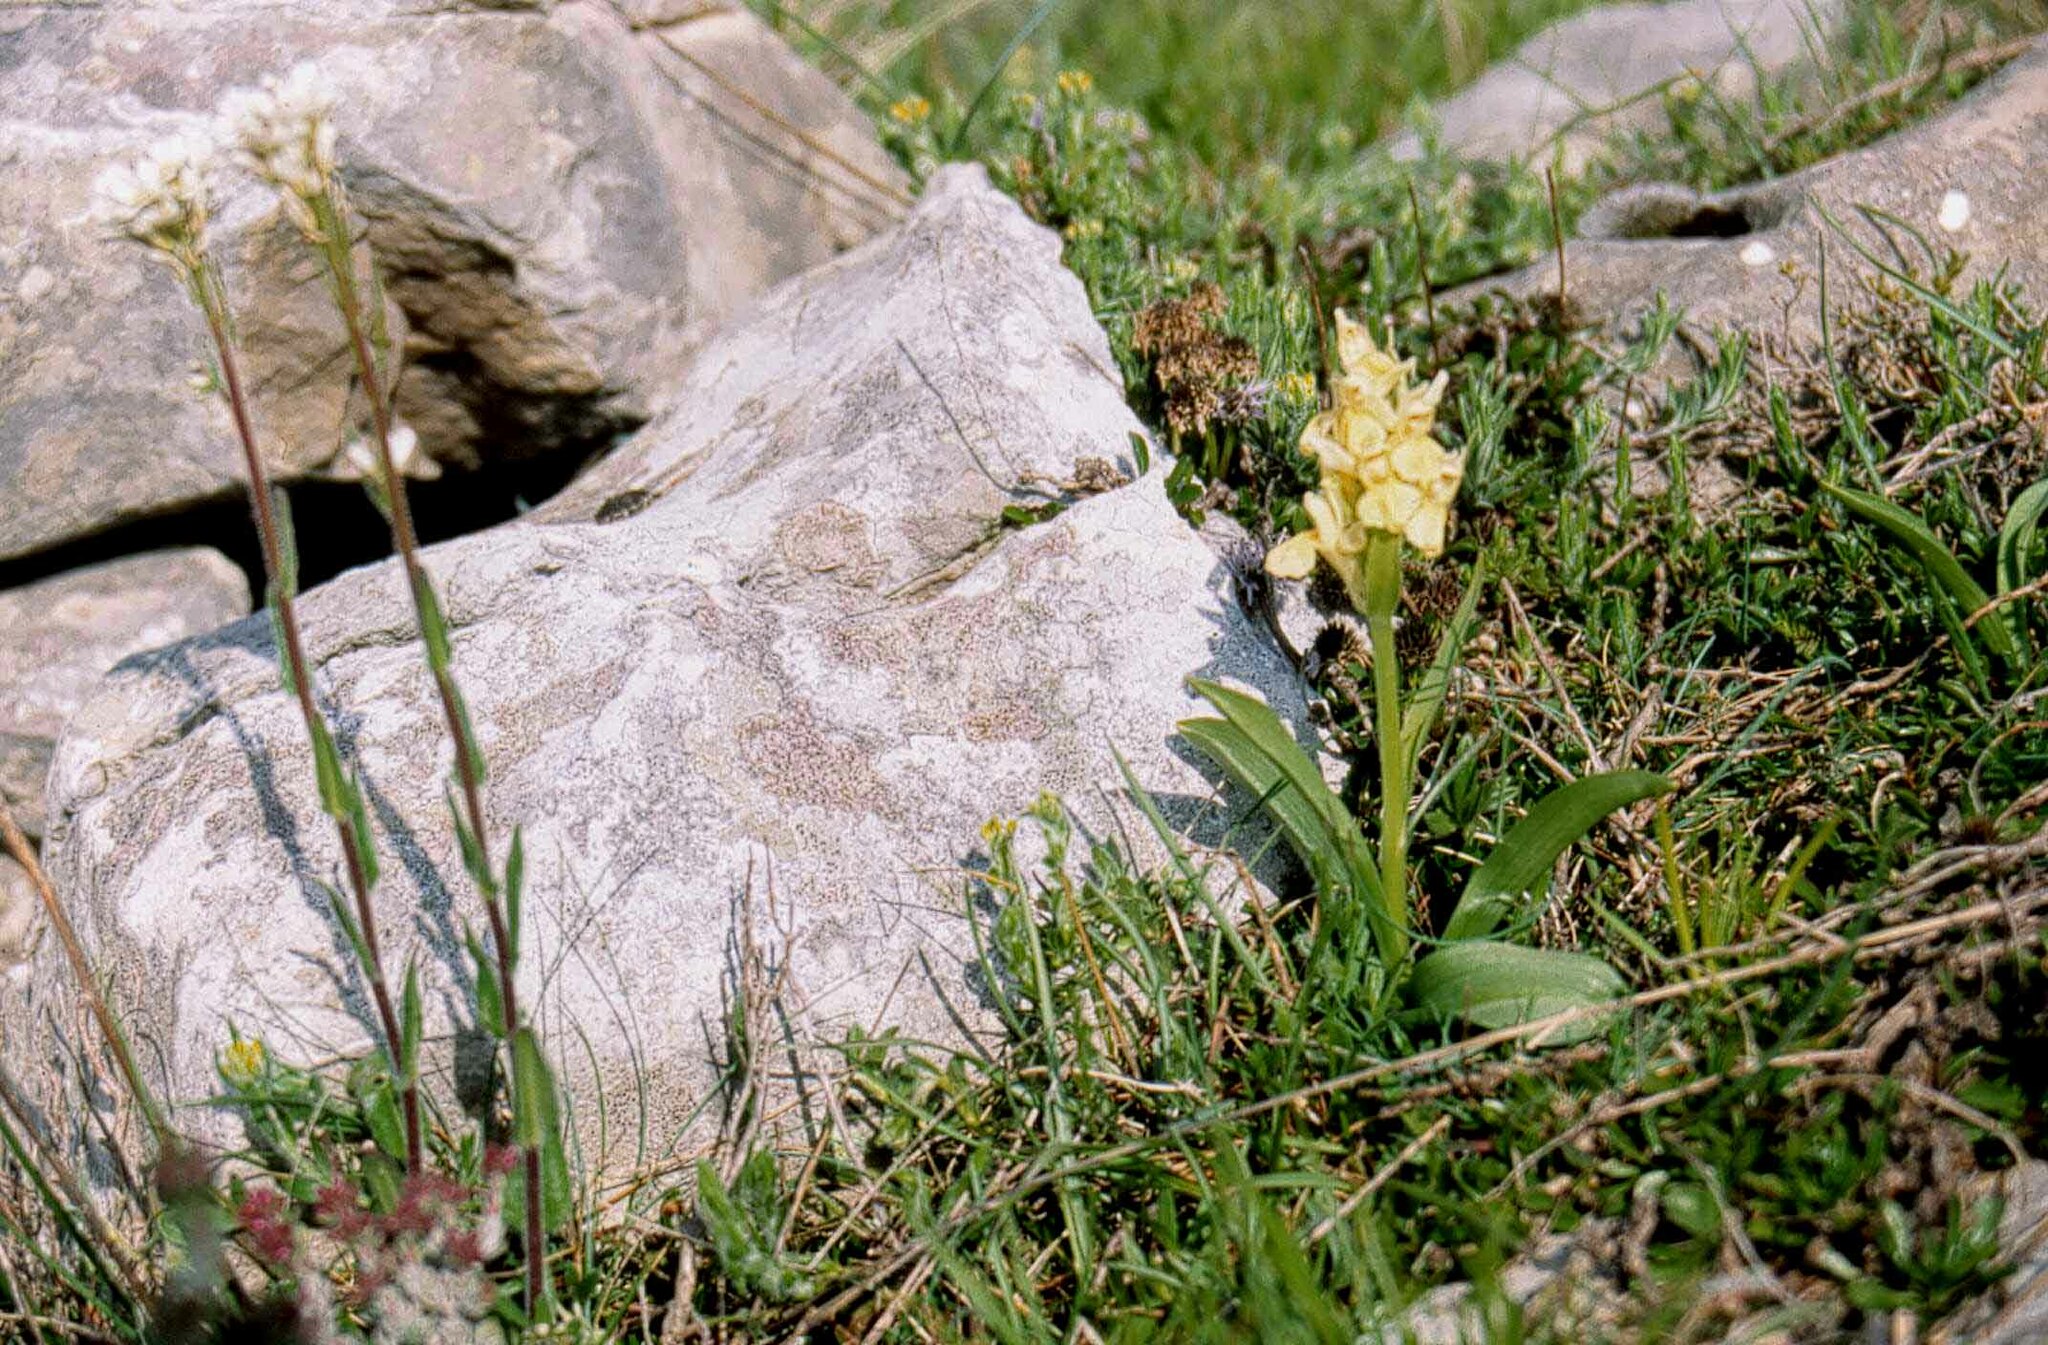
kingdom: Plantae
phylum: Tracheophyta
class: Liliopsida
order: Asparagales
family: Orchidaceae
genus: Dactylorhiza
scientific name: Dactylorhiza sambucina
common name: Elder-flowered orchid
